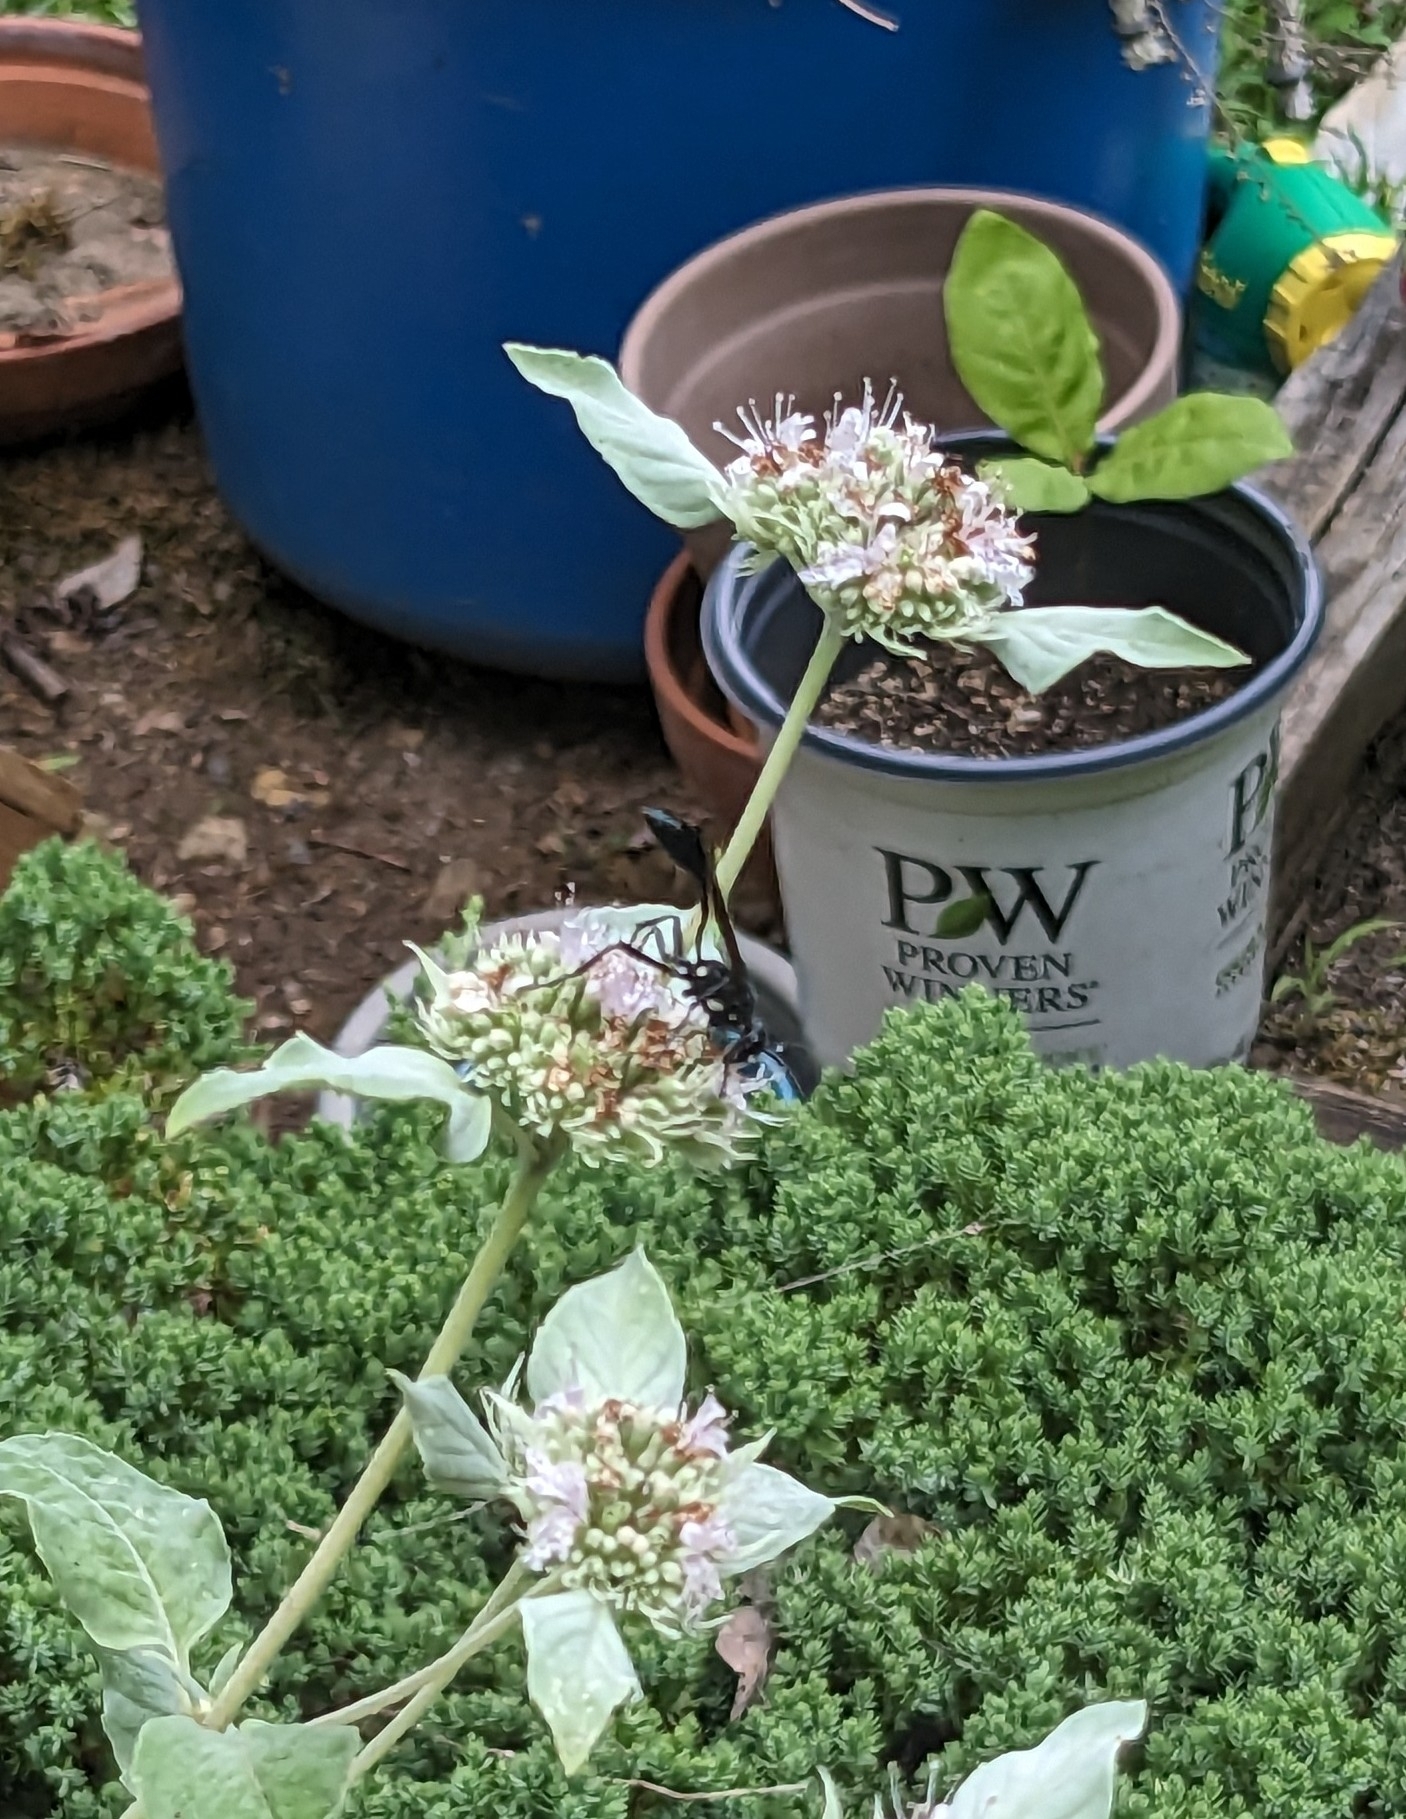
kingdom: Animalia
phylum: Arthropoda
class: Insecta
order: Hymenoptera
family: Sphecidae
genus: Eremnophila
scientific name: Eremnophila aureonotata
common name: Gold-marked thread-waisted wasp
